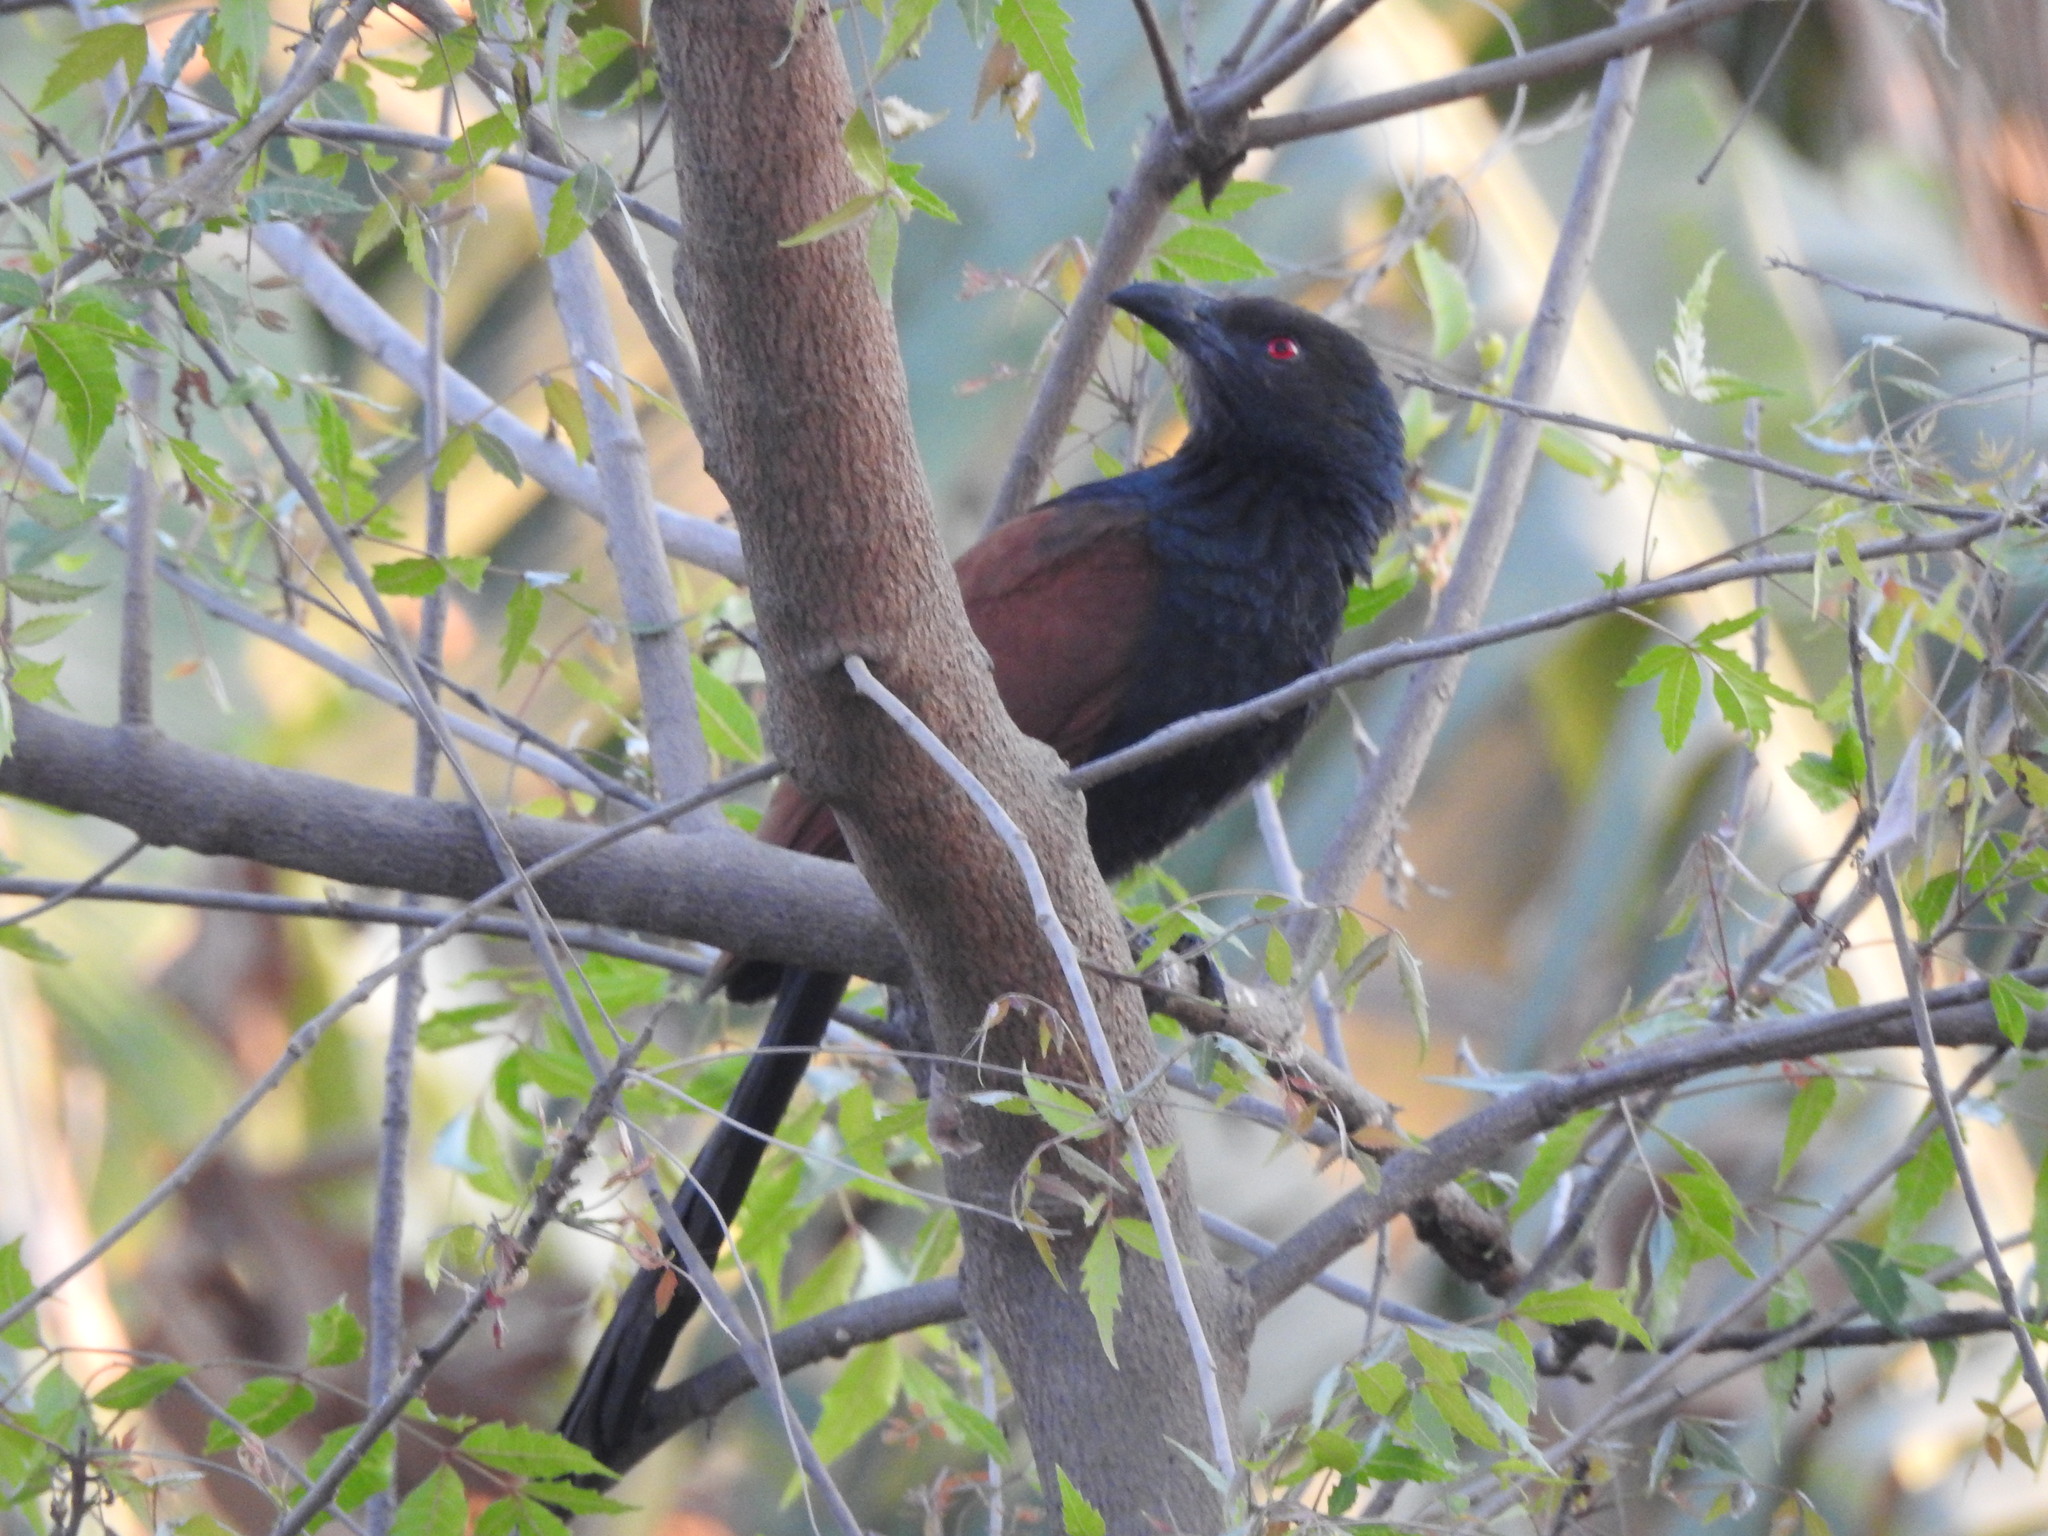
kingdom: Animalia
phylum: Chordata
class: Aves
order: Cuculiformes
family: Cuculidae
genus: Centropus
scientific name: Centropus sinensis
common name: Greater coucal
